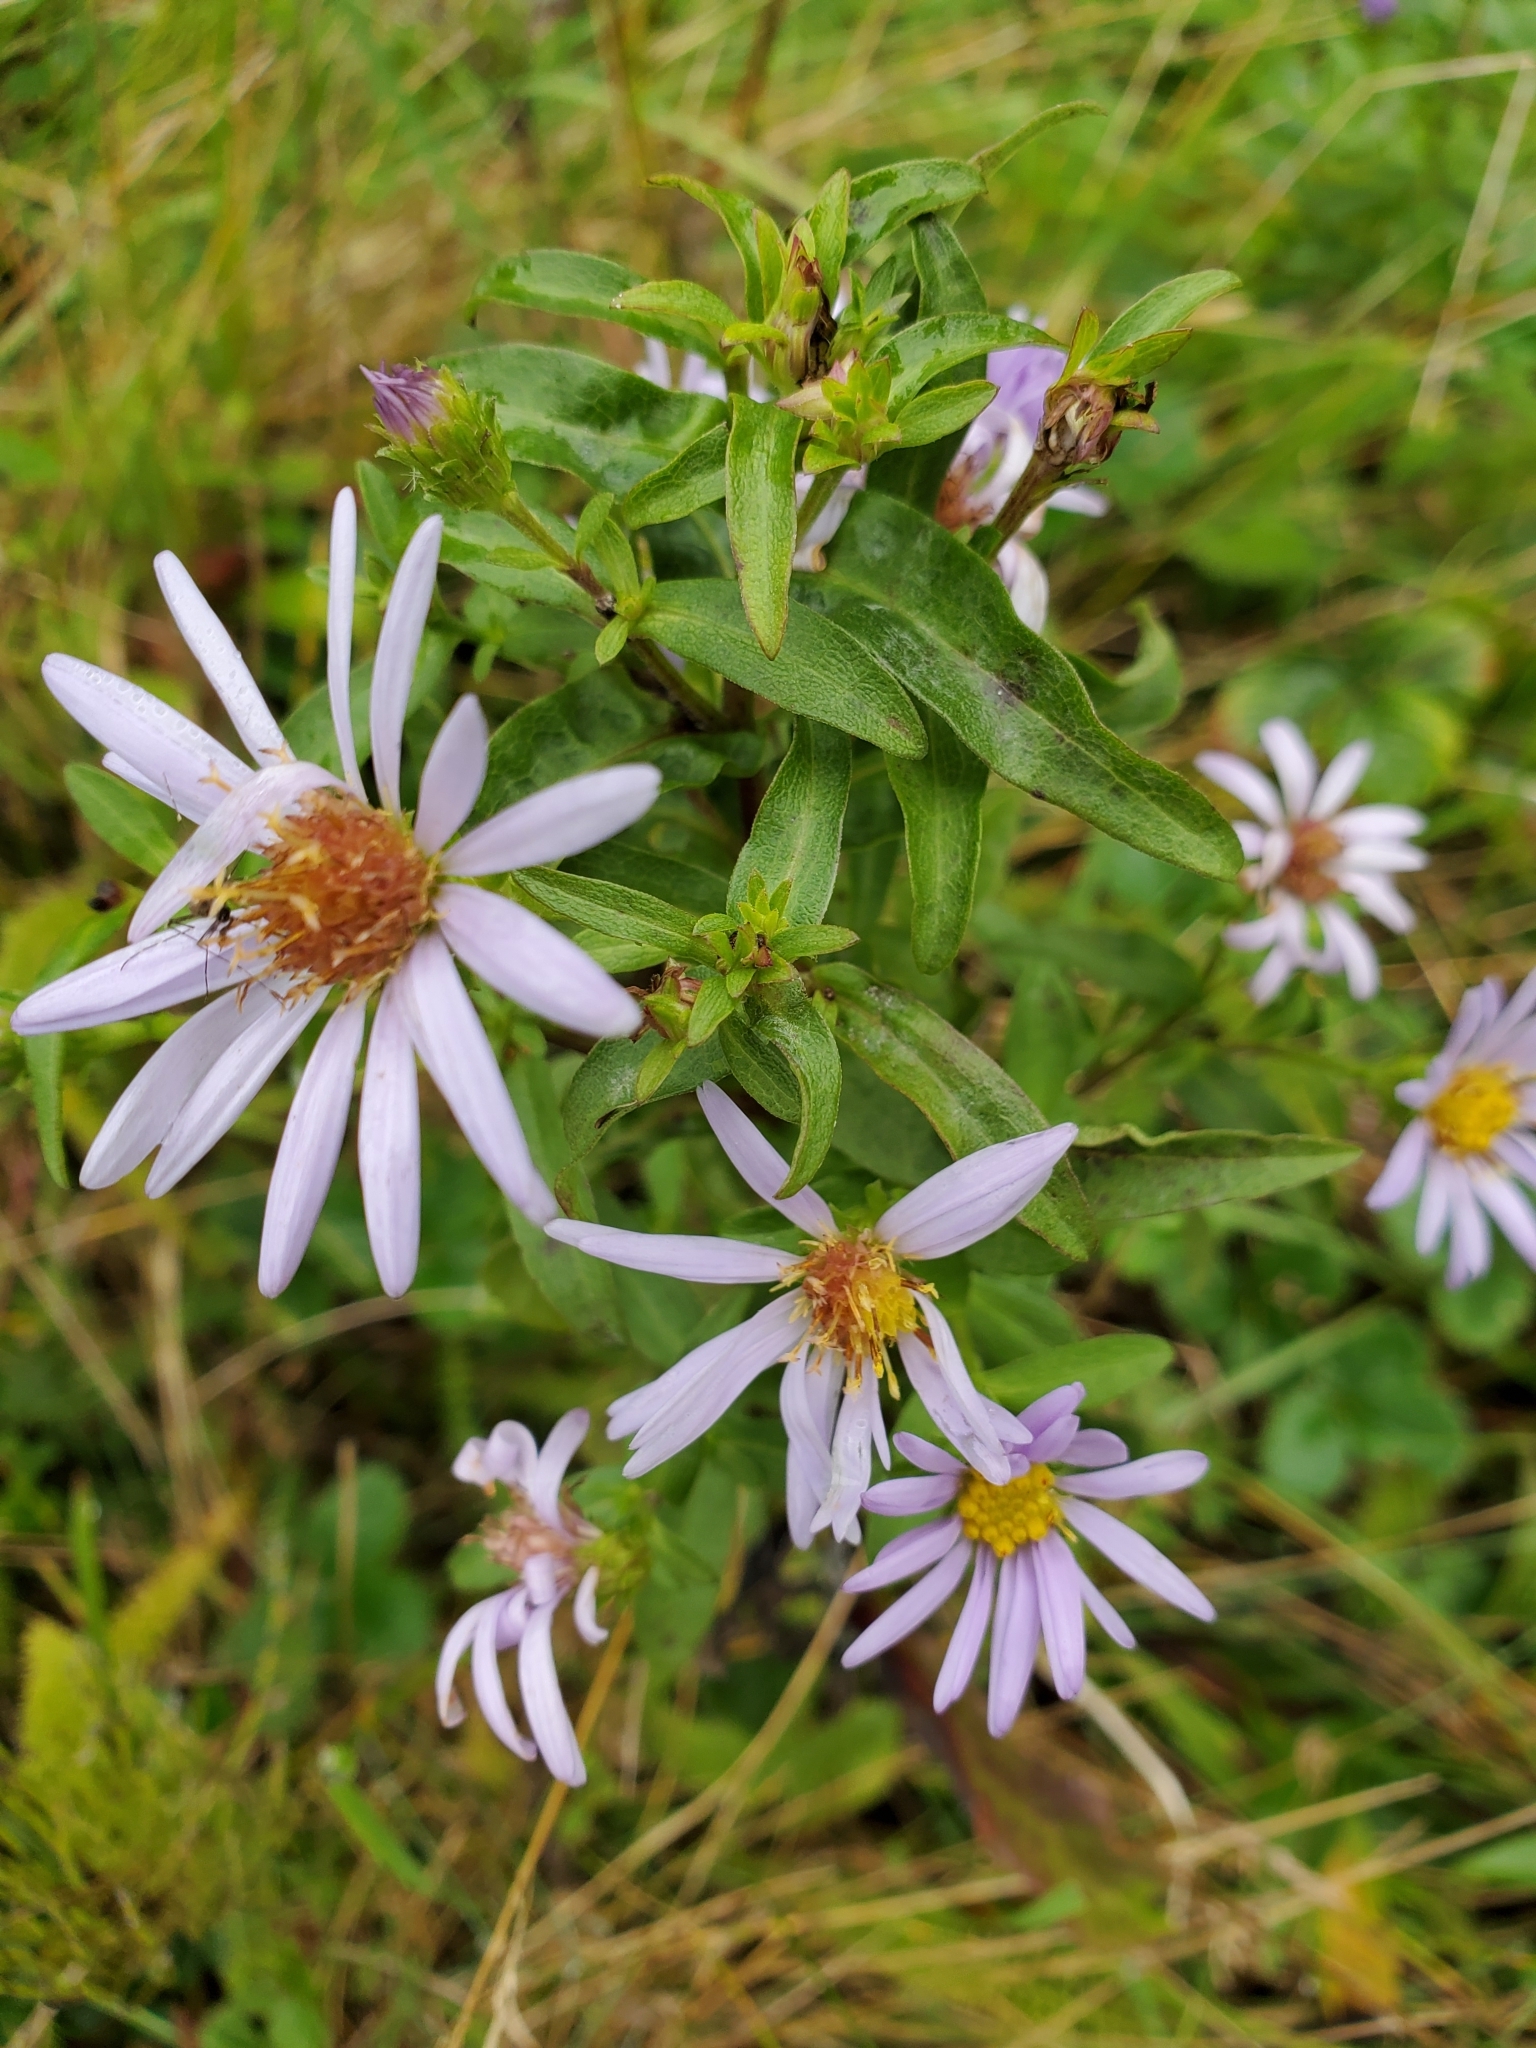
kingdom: Plantae
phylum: Tracheophyta
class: Magnoliopsida
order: Asterales
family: Asteraceae
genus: Symphyotrichum
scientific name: Symphyotrichum chilense
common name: Pacific aster
